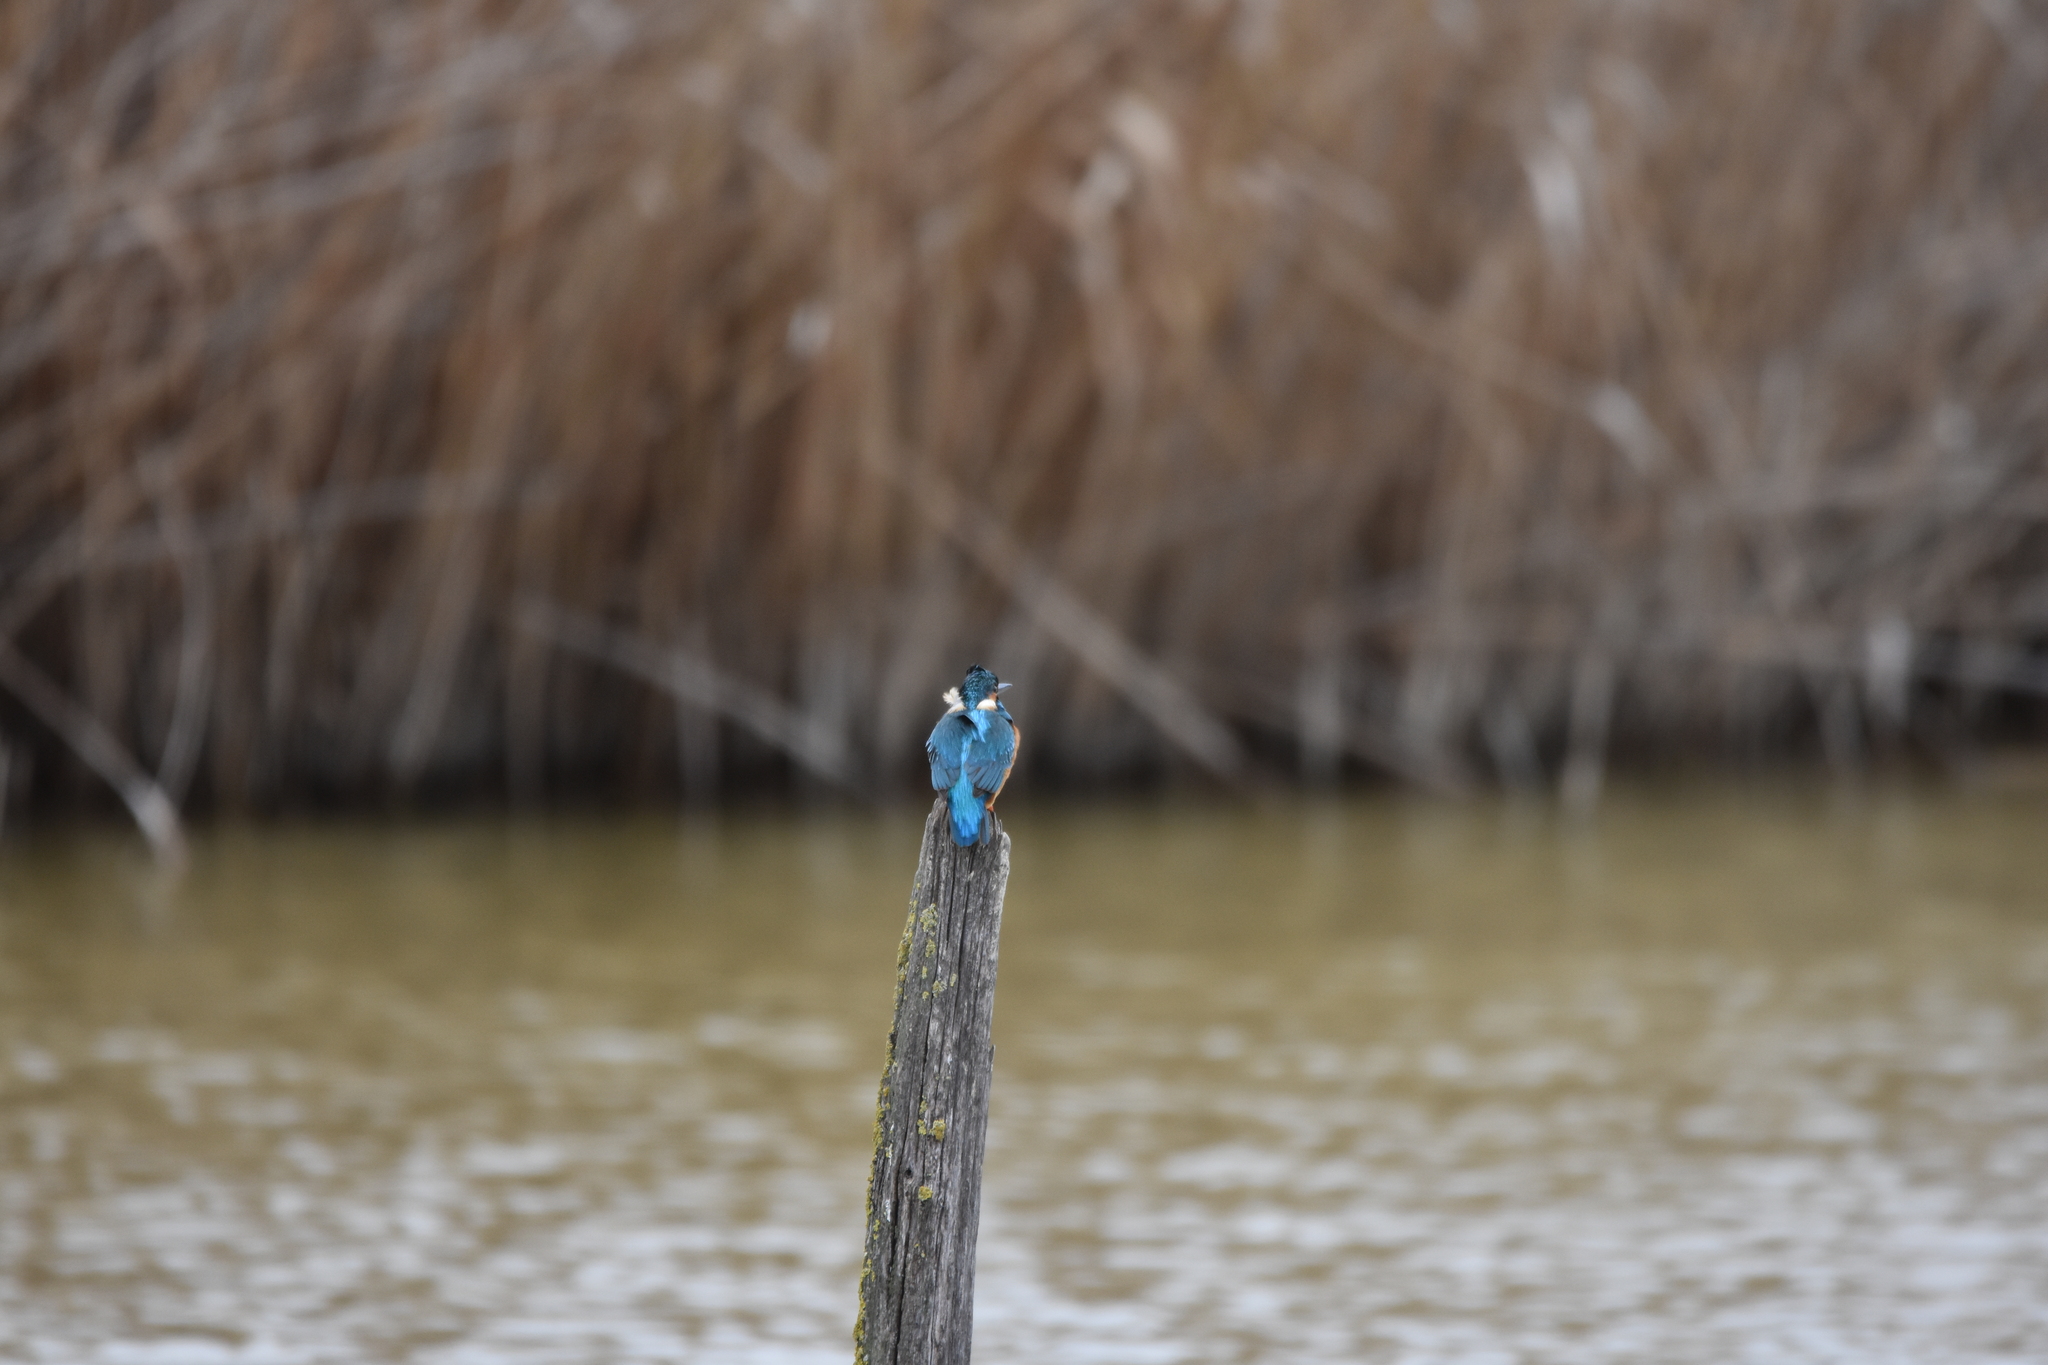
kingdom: Animalia
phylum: Chordata
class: Aves
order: Coraciiformes
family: Alcedinidae
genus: Alcedo
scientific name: Alcedo atthis
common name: Common kingfisher
